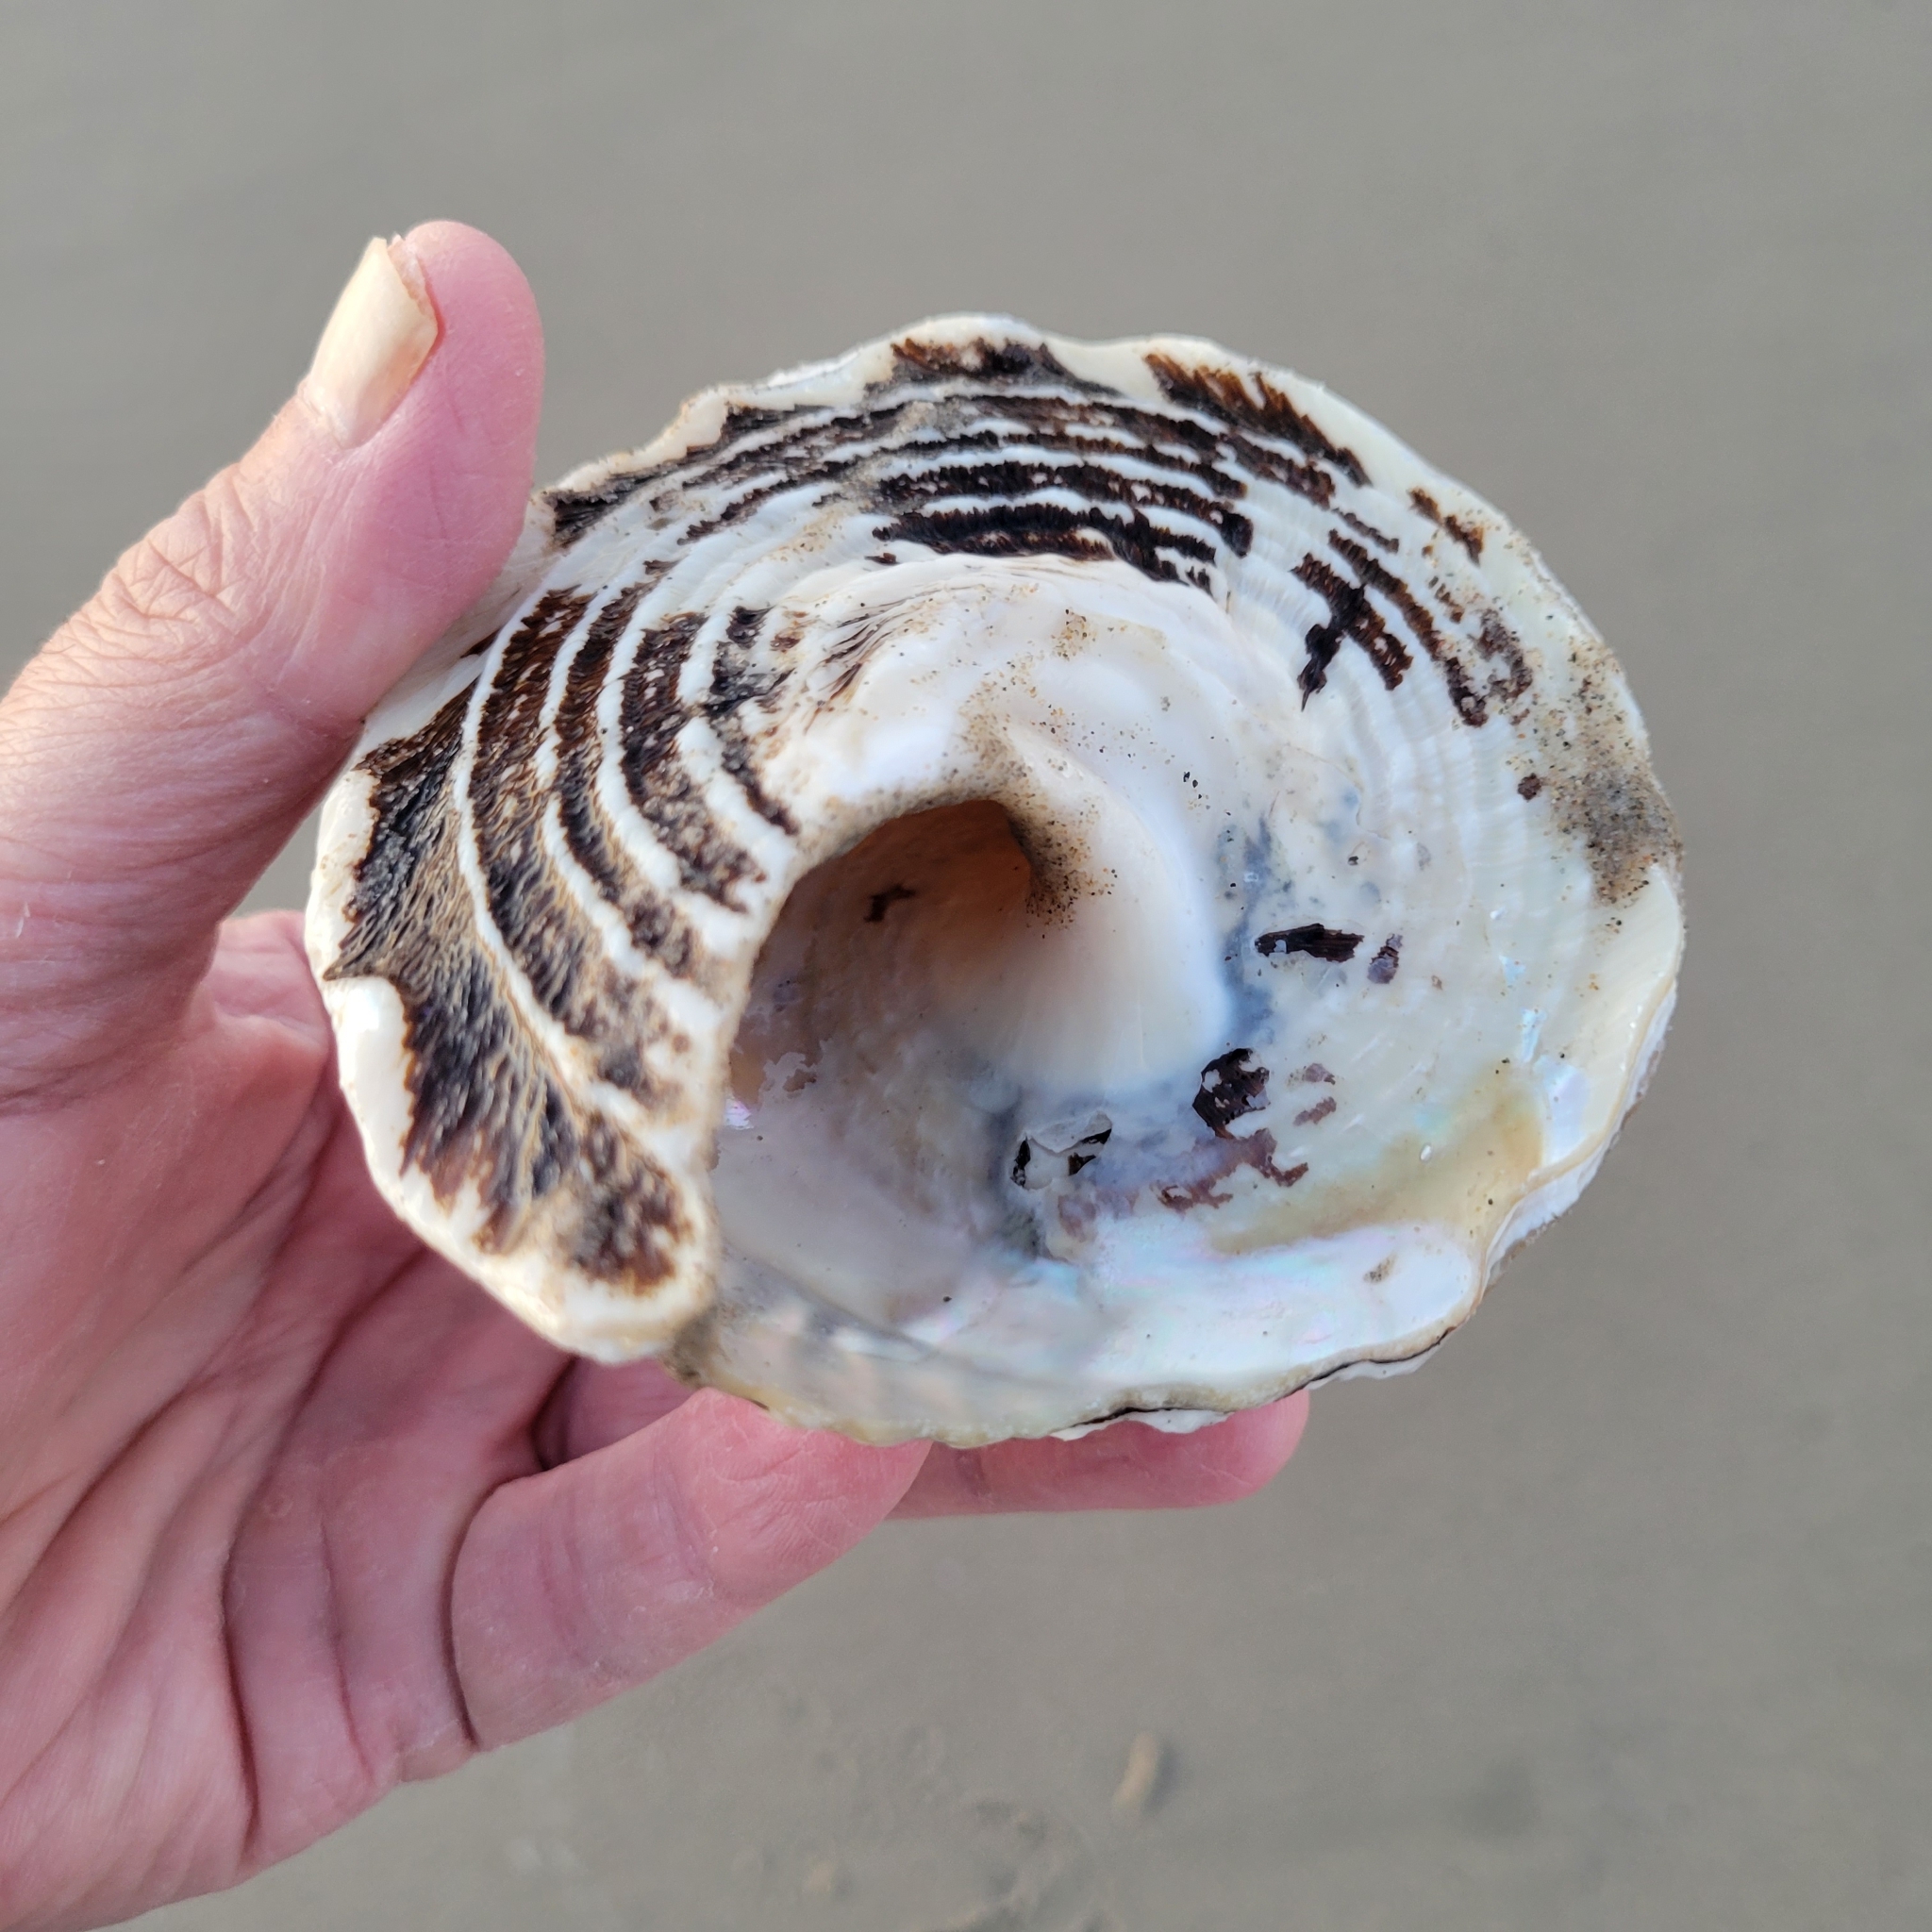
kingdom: Animalia
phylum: Mollusca
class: Gastropoda
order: Trochida
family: Turbinidae
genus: Megastraea
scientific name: Megastraea undosa
